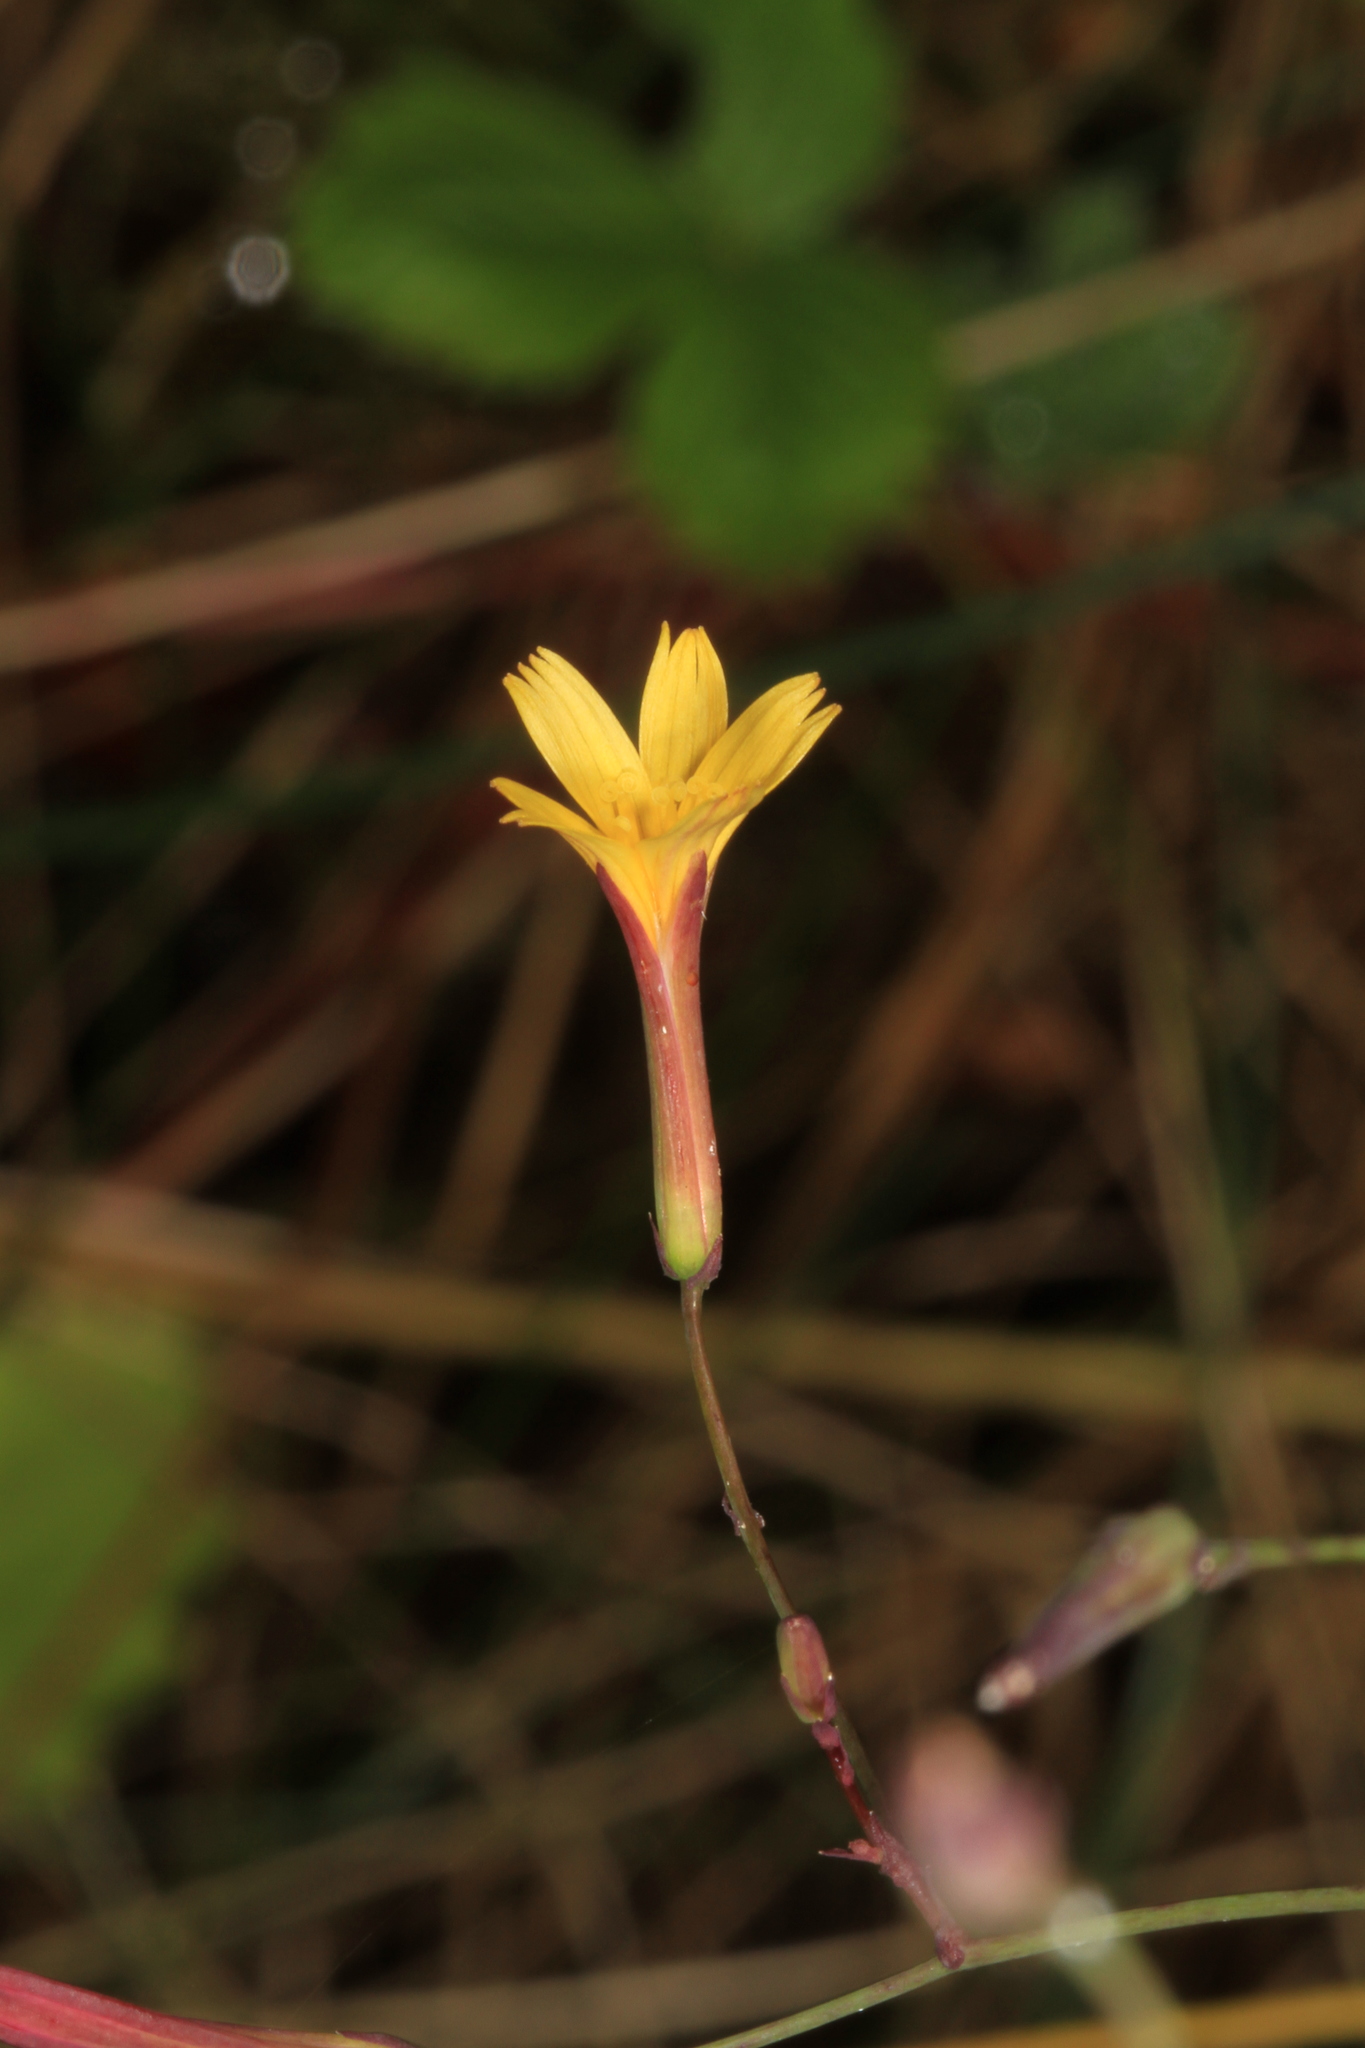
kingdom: Plantae
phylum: Tracheophyta
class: Magnoliopsida
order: Asterales
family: Asteraceae
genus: Mycelis
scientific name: Mycelis muralis
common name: Wall lettuce
